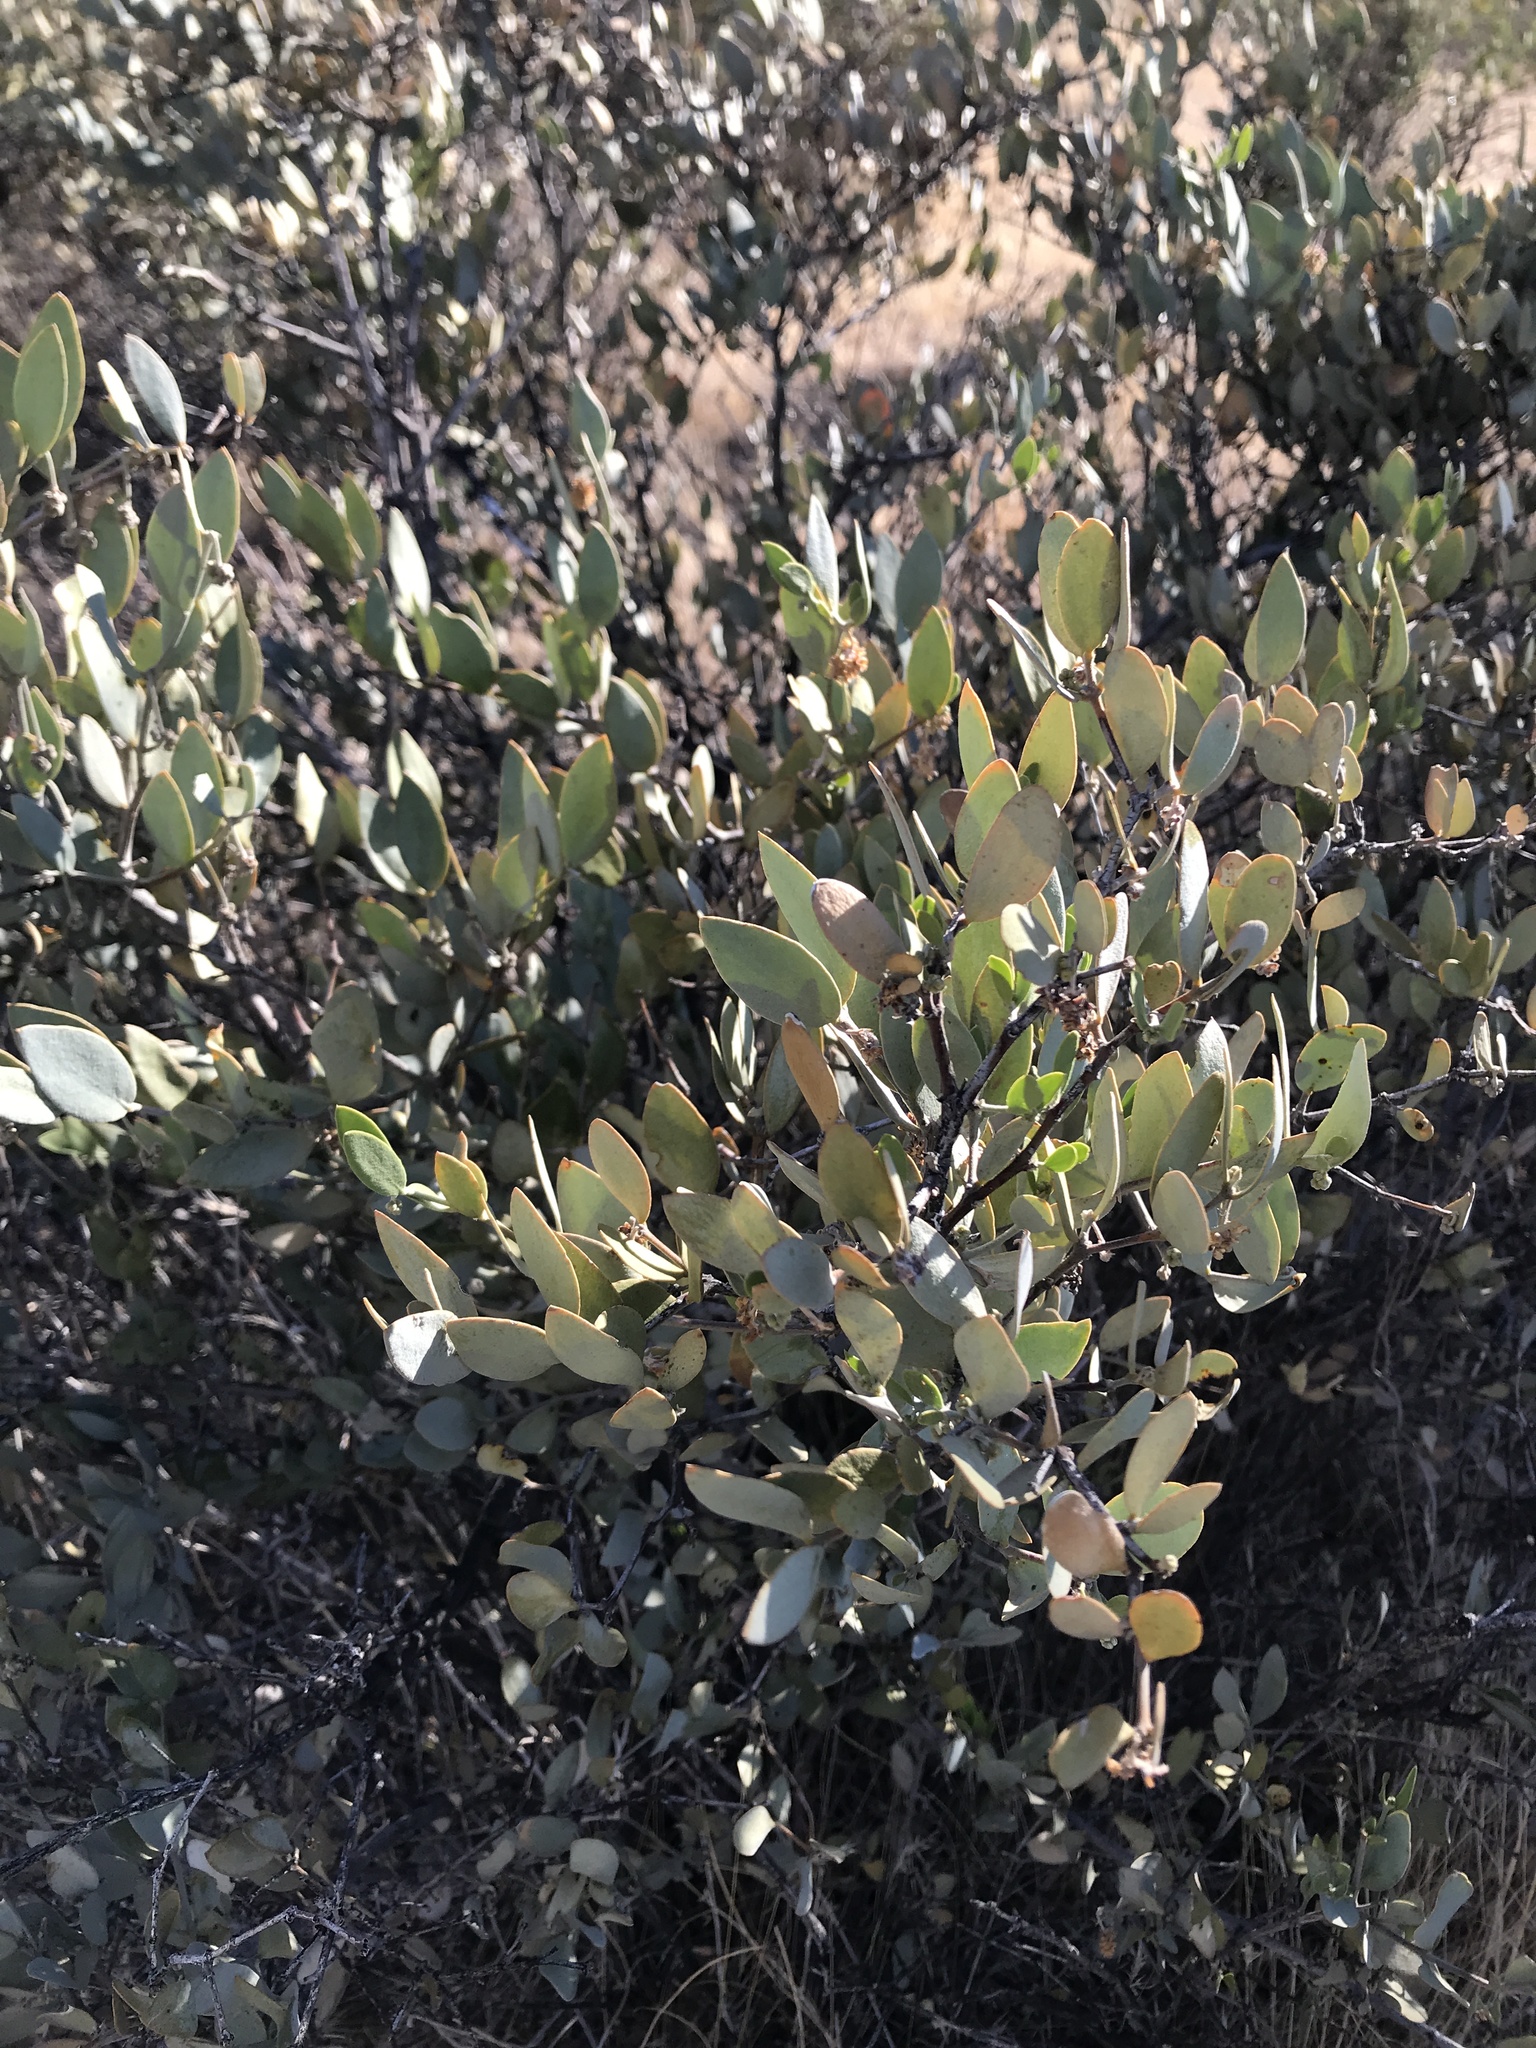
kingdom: Plantae
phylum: Tracheophyta
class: Magnoliopsida
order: Caryophyllales
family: Simmondsiaceae
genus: Simmondsia
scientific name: Simmondsia chinensis
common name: Jojoba
